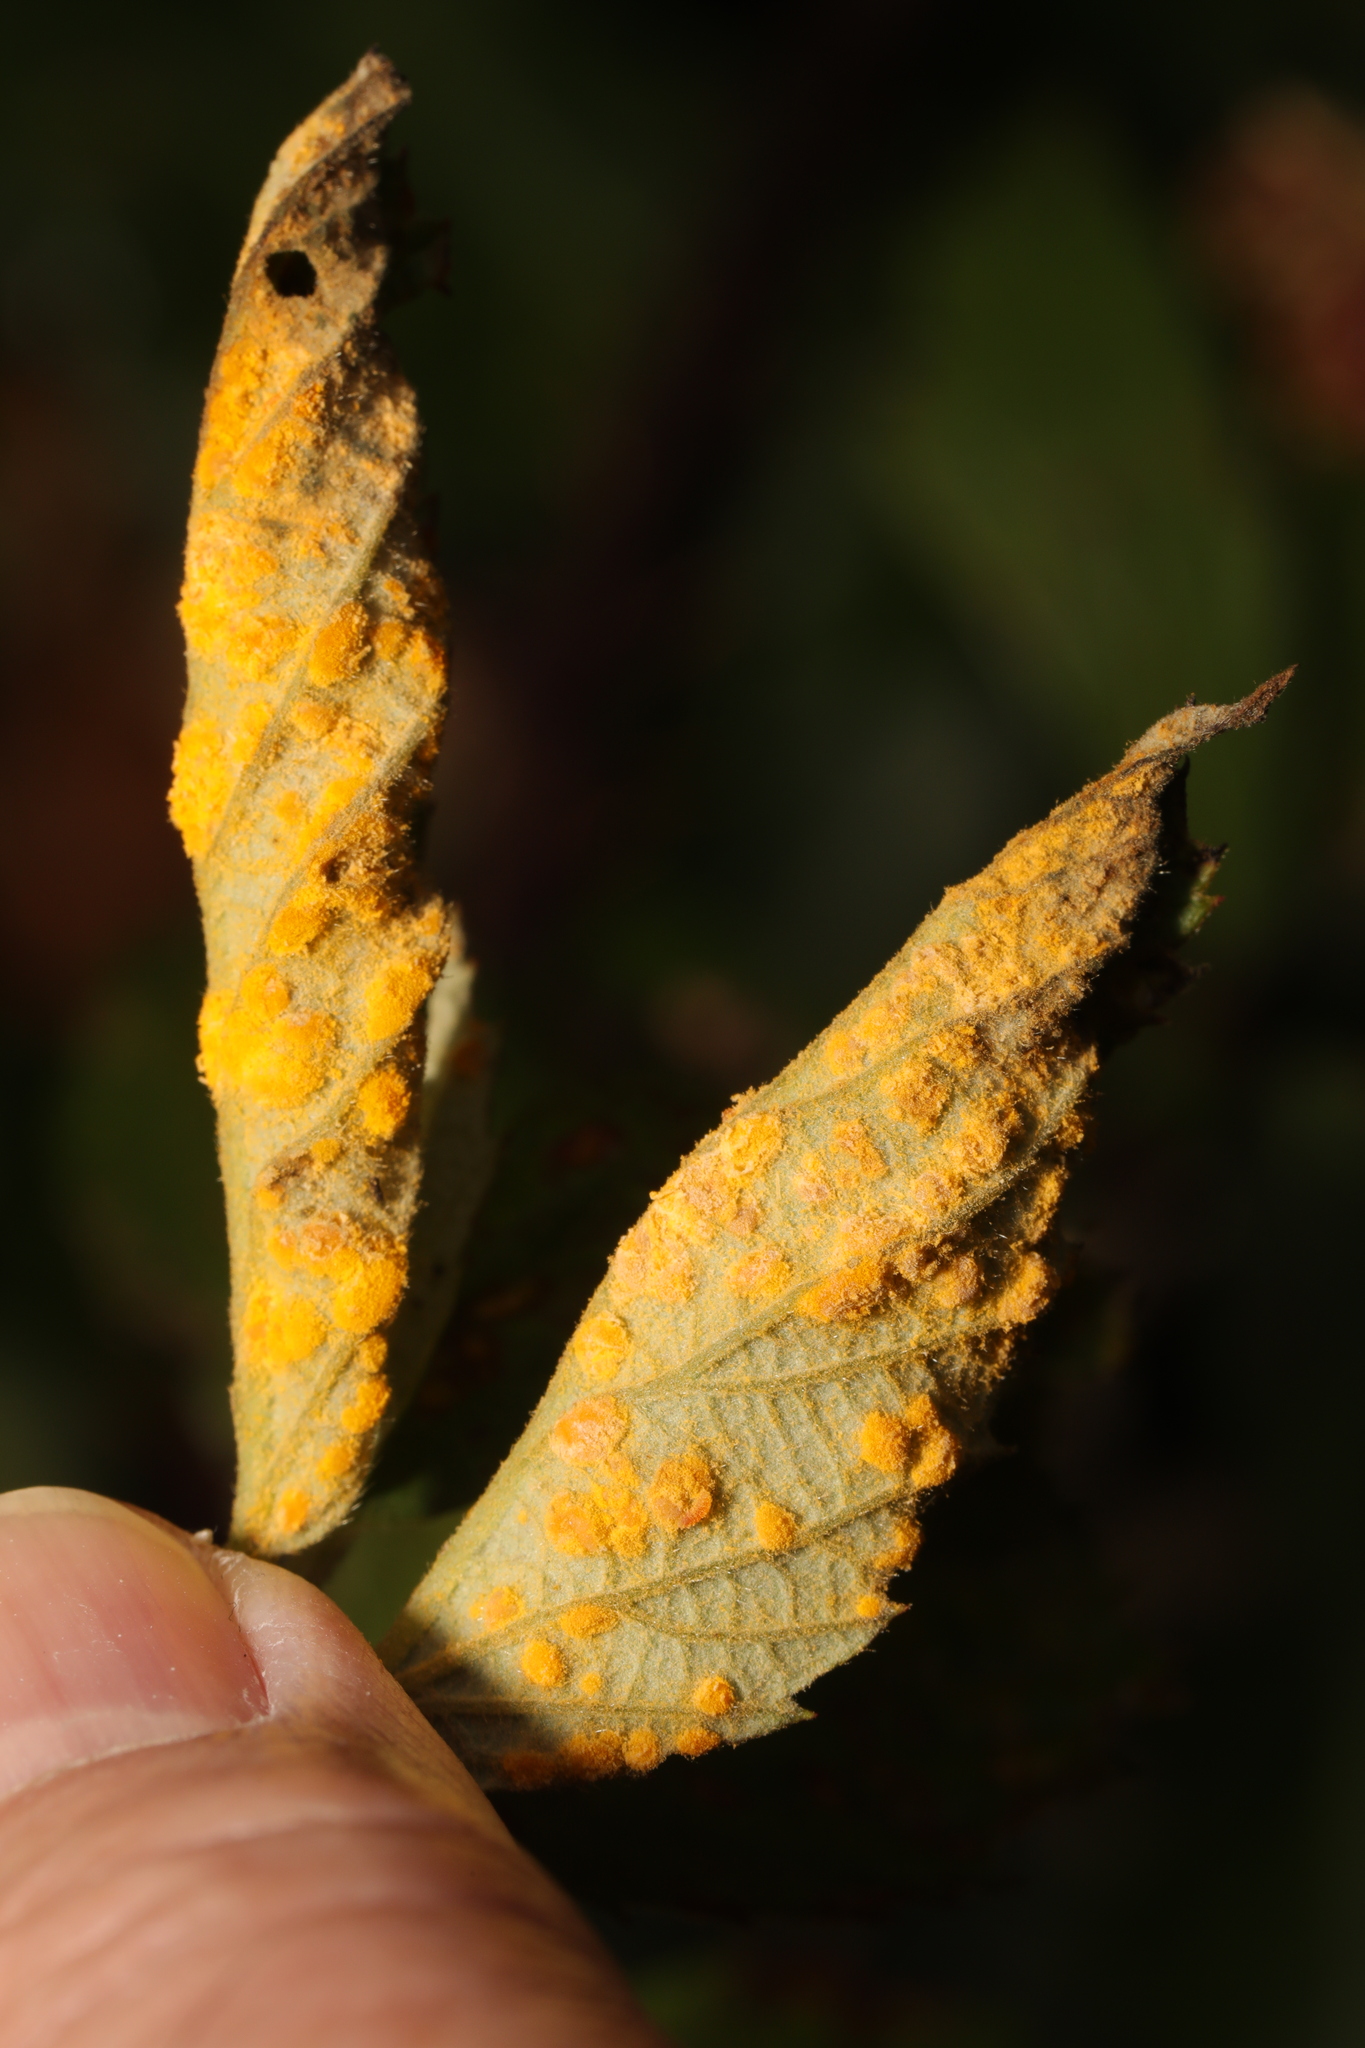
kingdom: Fungi
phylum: Basidiomycota
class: Pucciniomycetes
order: Pucciniales
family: Phragmidiaceae
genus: Phragmidium
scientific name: Phragmidium violaceum
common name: Violet bramble rust
